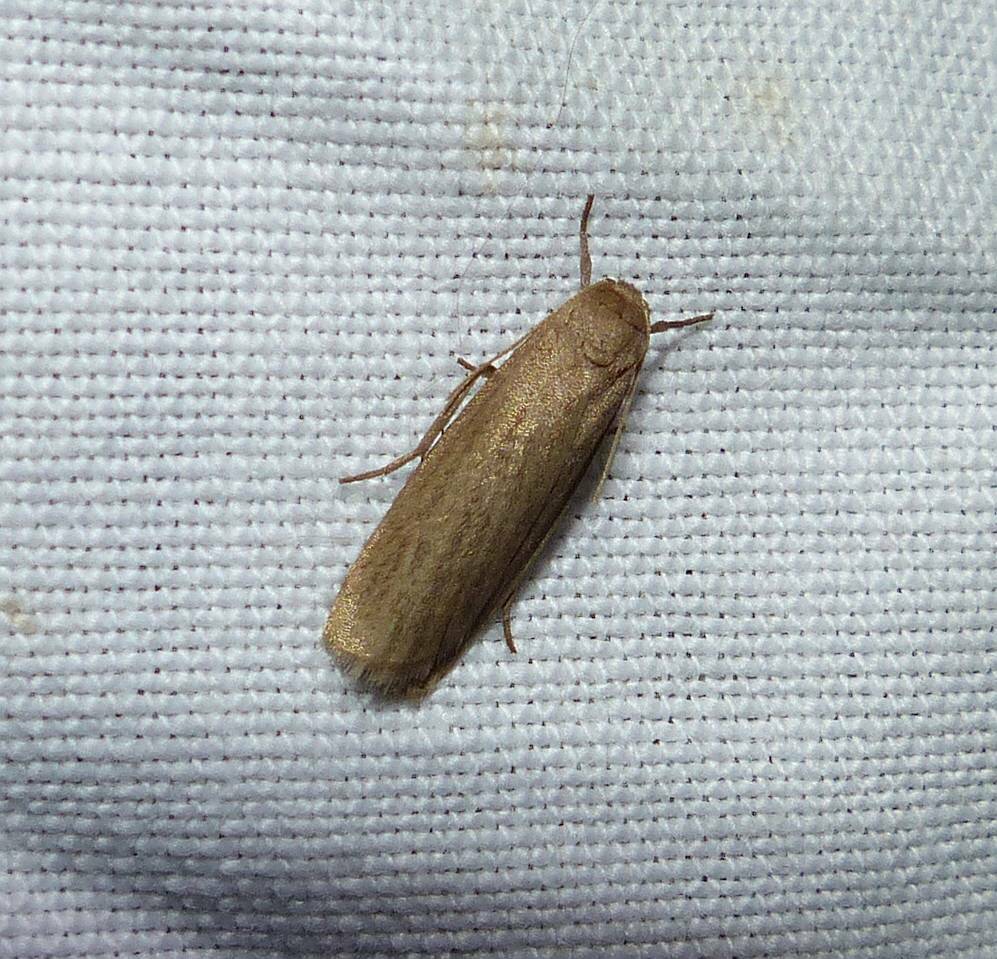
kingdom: Animalia
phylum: Arthropoda
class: Insecta
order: Lepidoptera
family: Erebidae
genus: Crambidia
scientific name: Crambidia pallida
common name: Pale lichen moth
